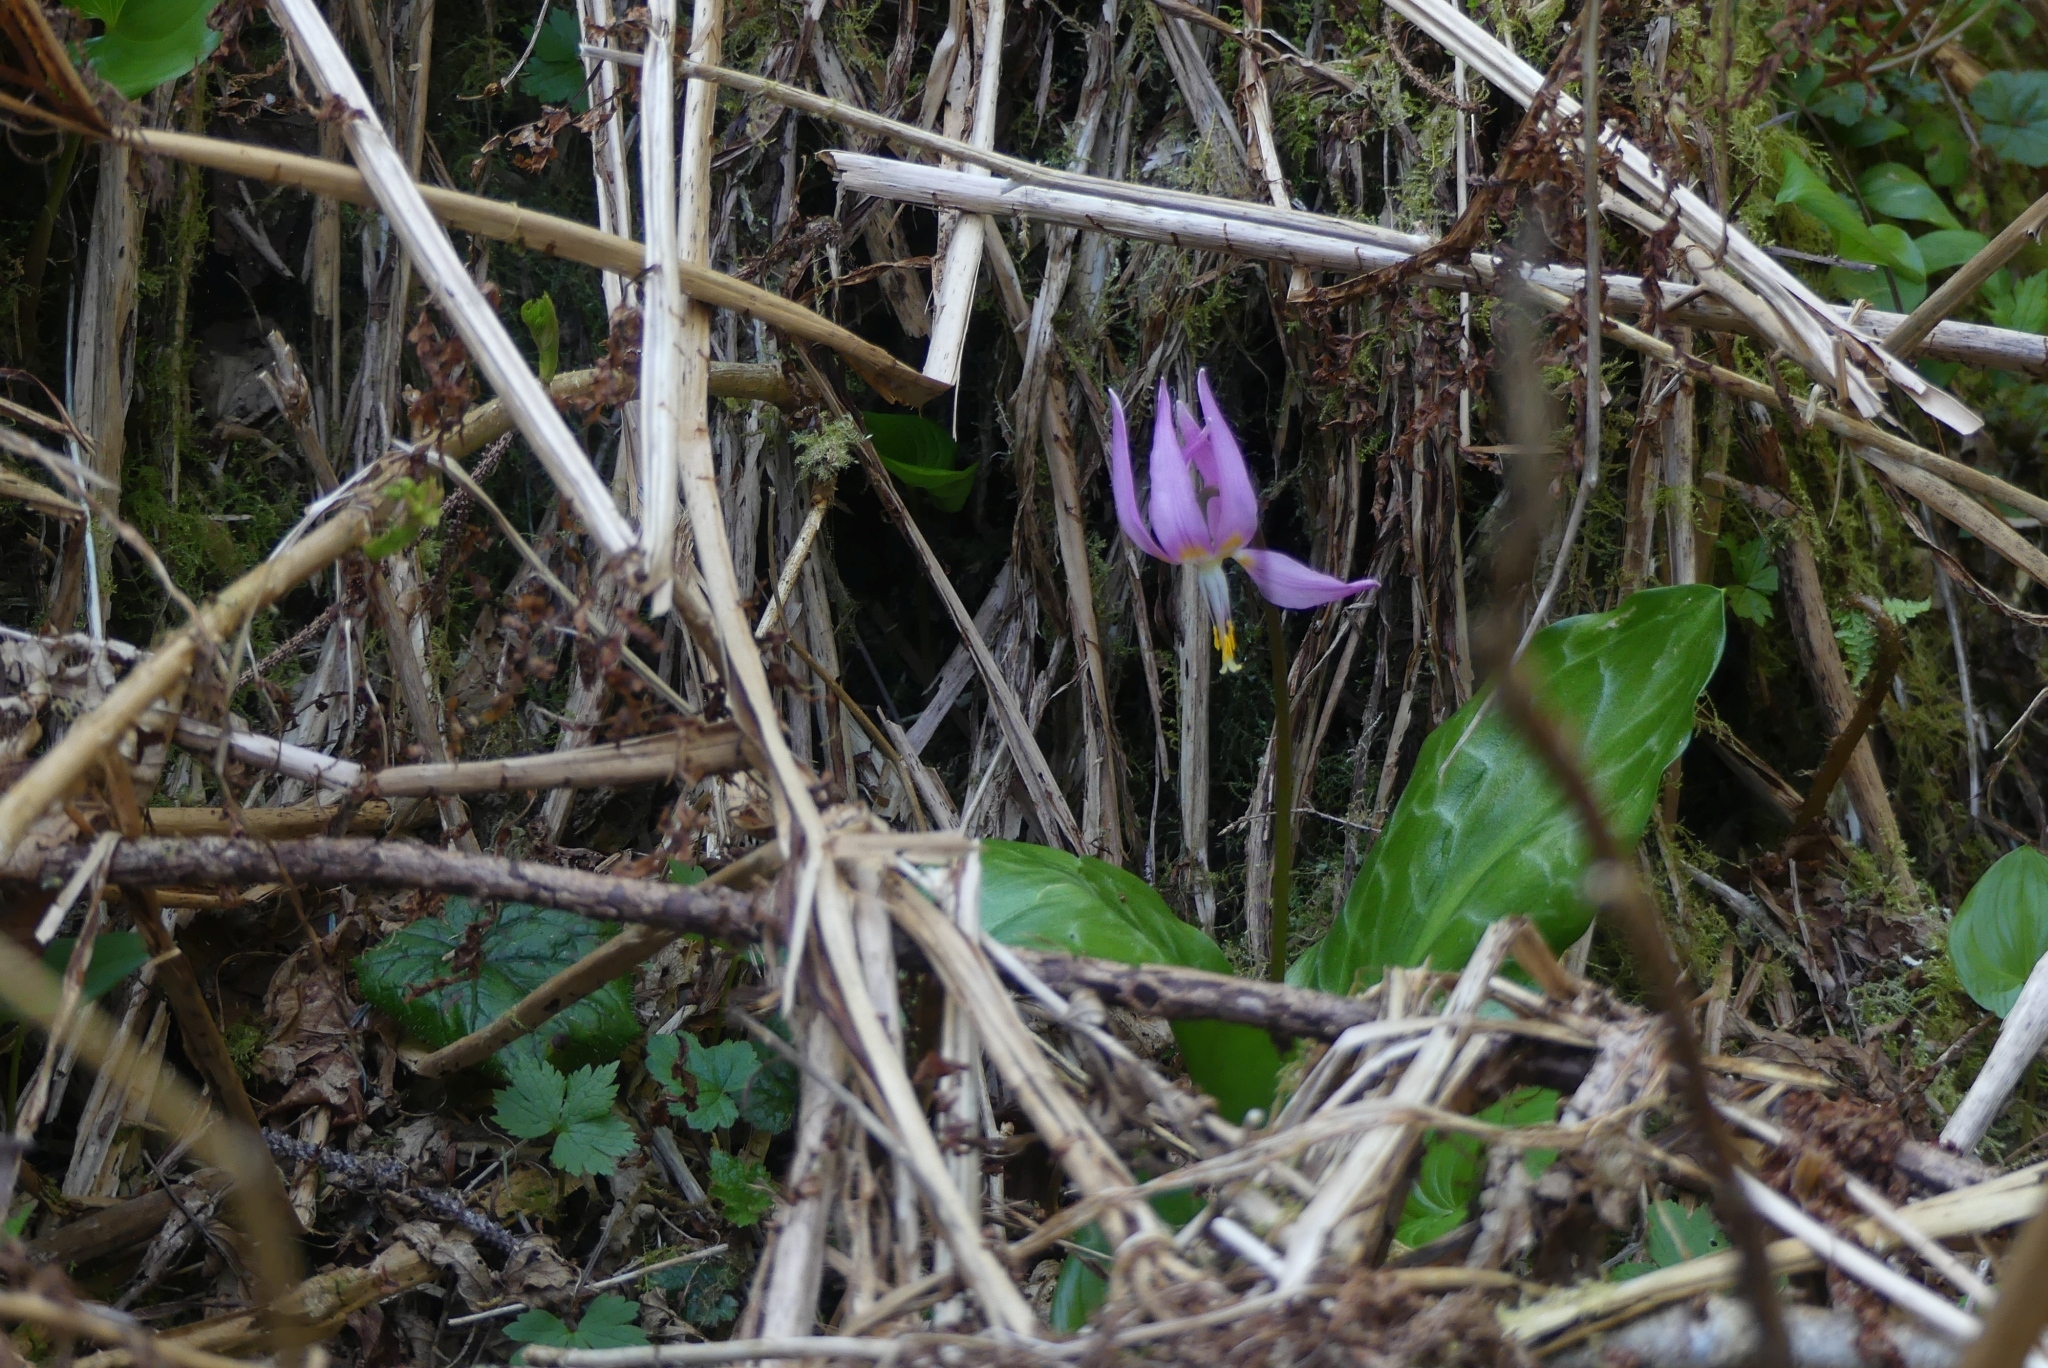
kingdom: Plantae
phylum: Tracheophyta
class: Liliopsida
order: Liliales
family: Liliaceae
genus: Erythronium
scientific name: Erythronium revolutum
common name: Pink fawn-lily
